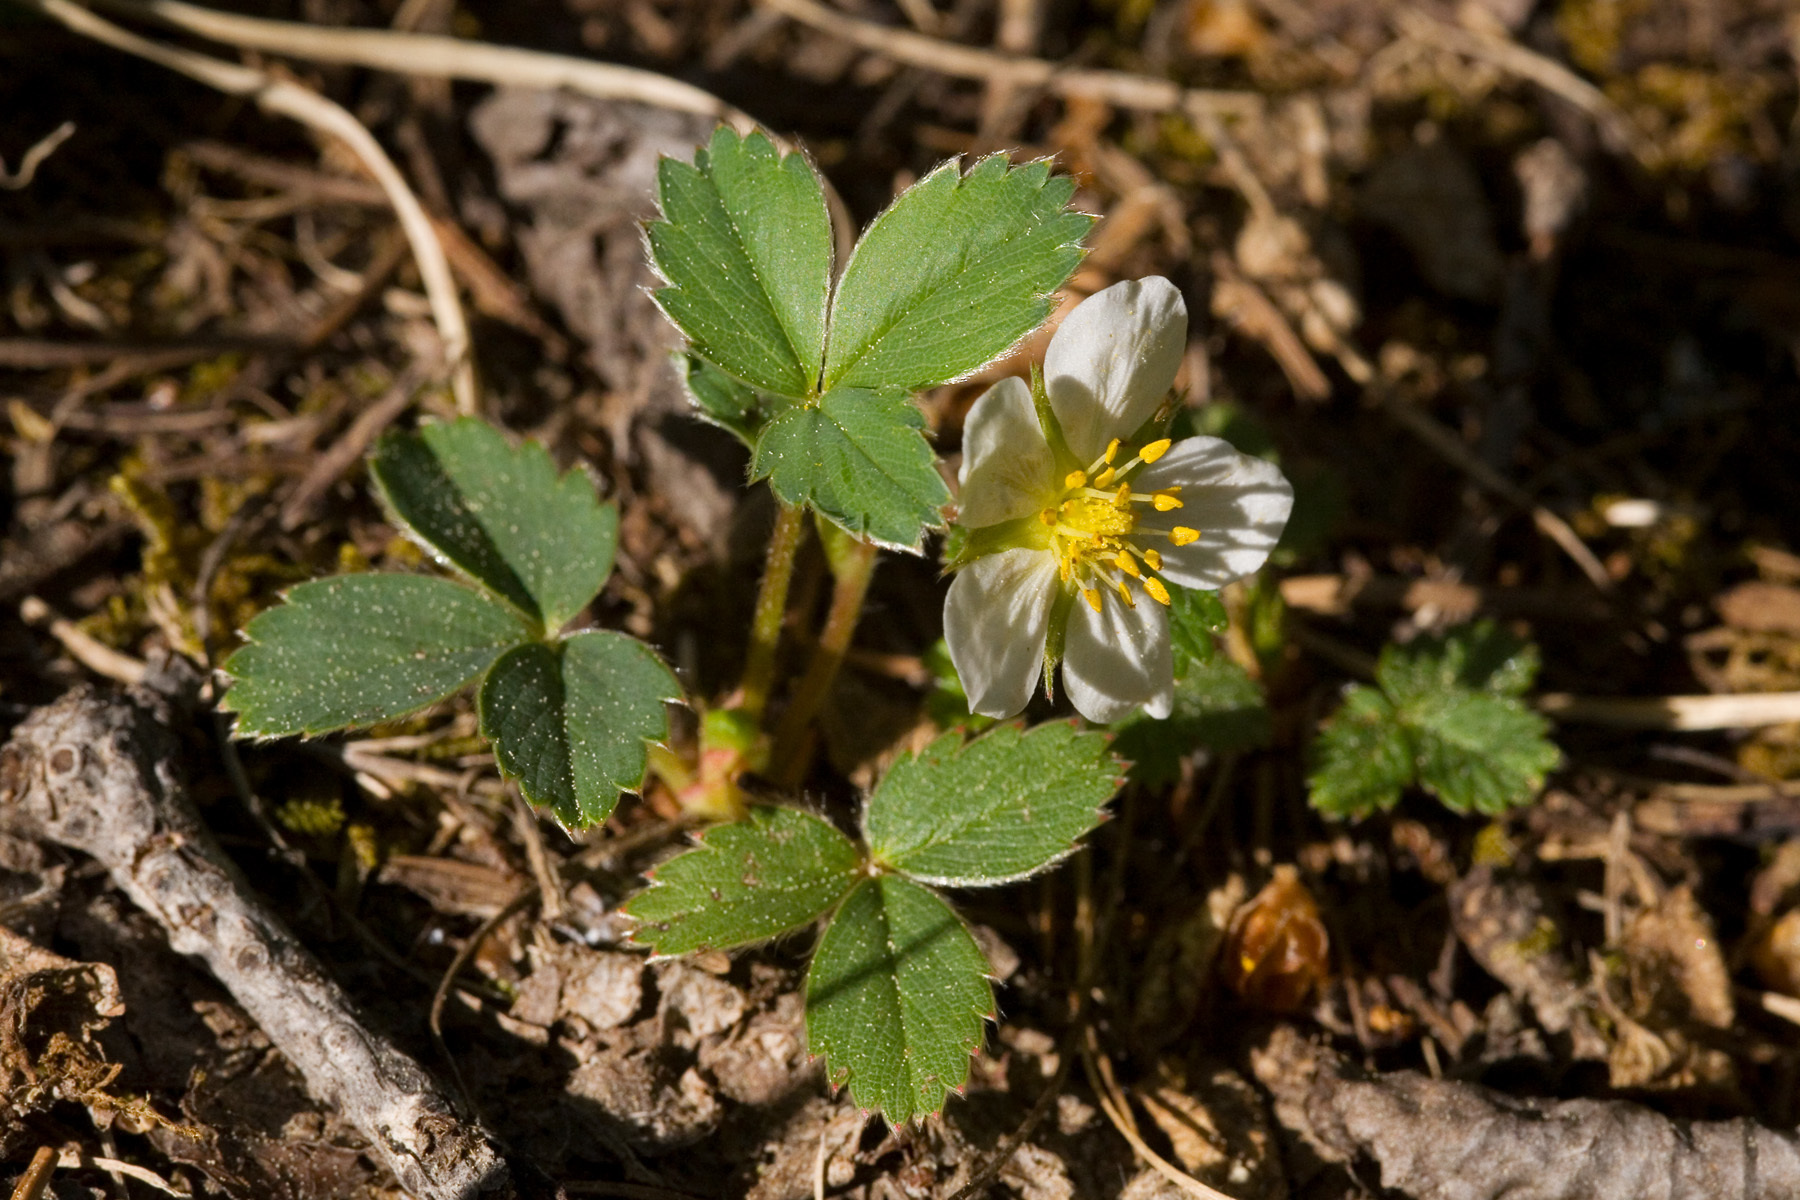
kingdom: Plantae
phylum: Tracheophyta
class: Magnoliopsida
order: Rosales
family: Rosaceae
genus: Fragaria
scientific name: Fragaria virginiana
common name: Thickleaved wild strawberry
